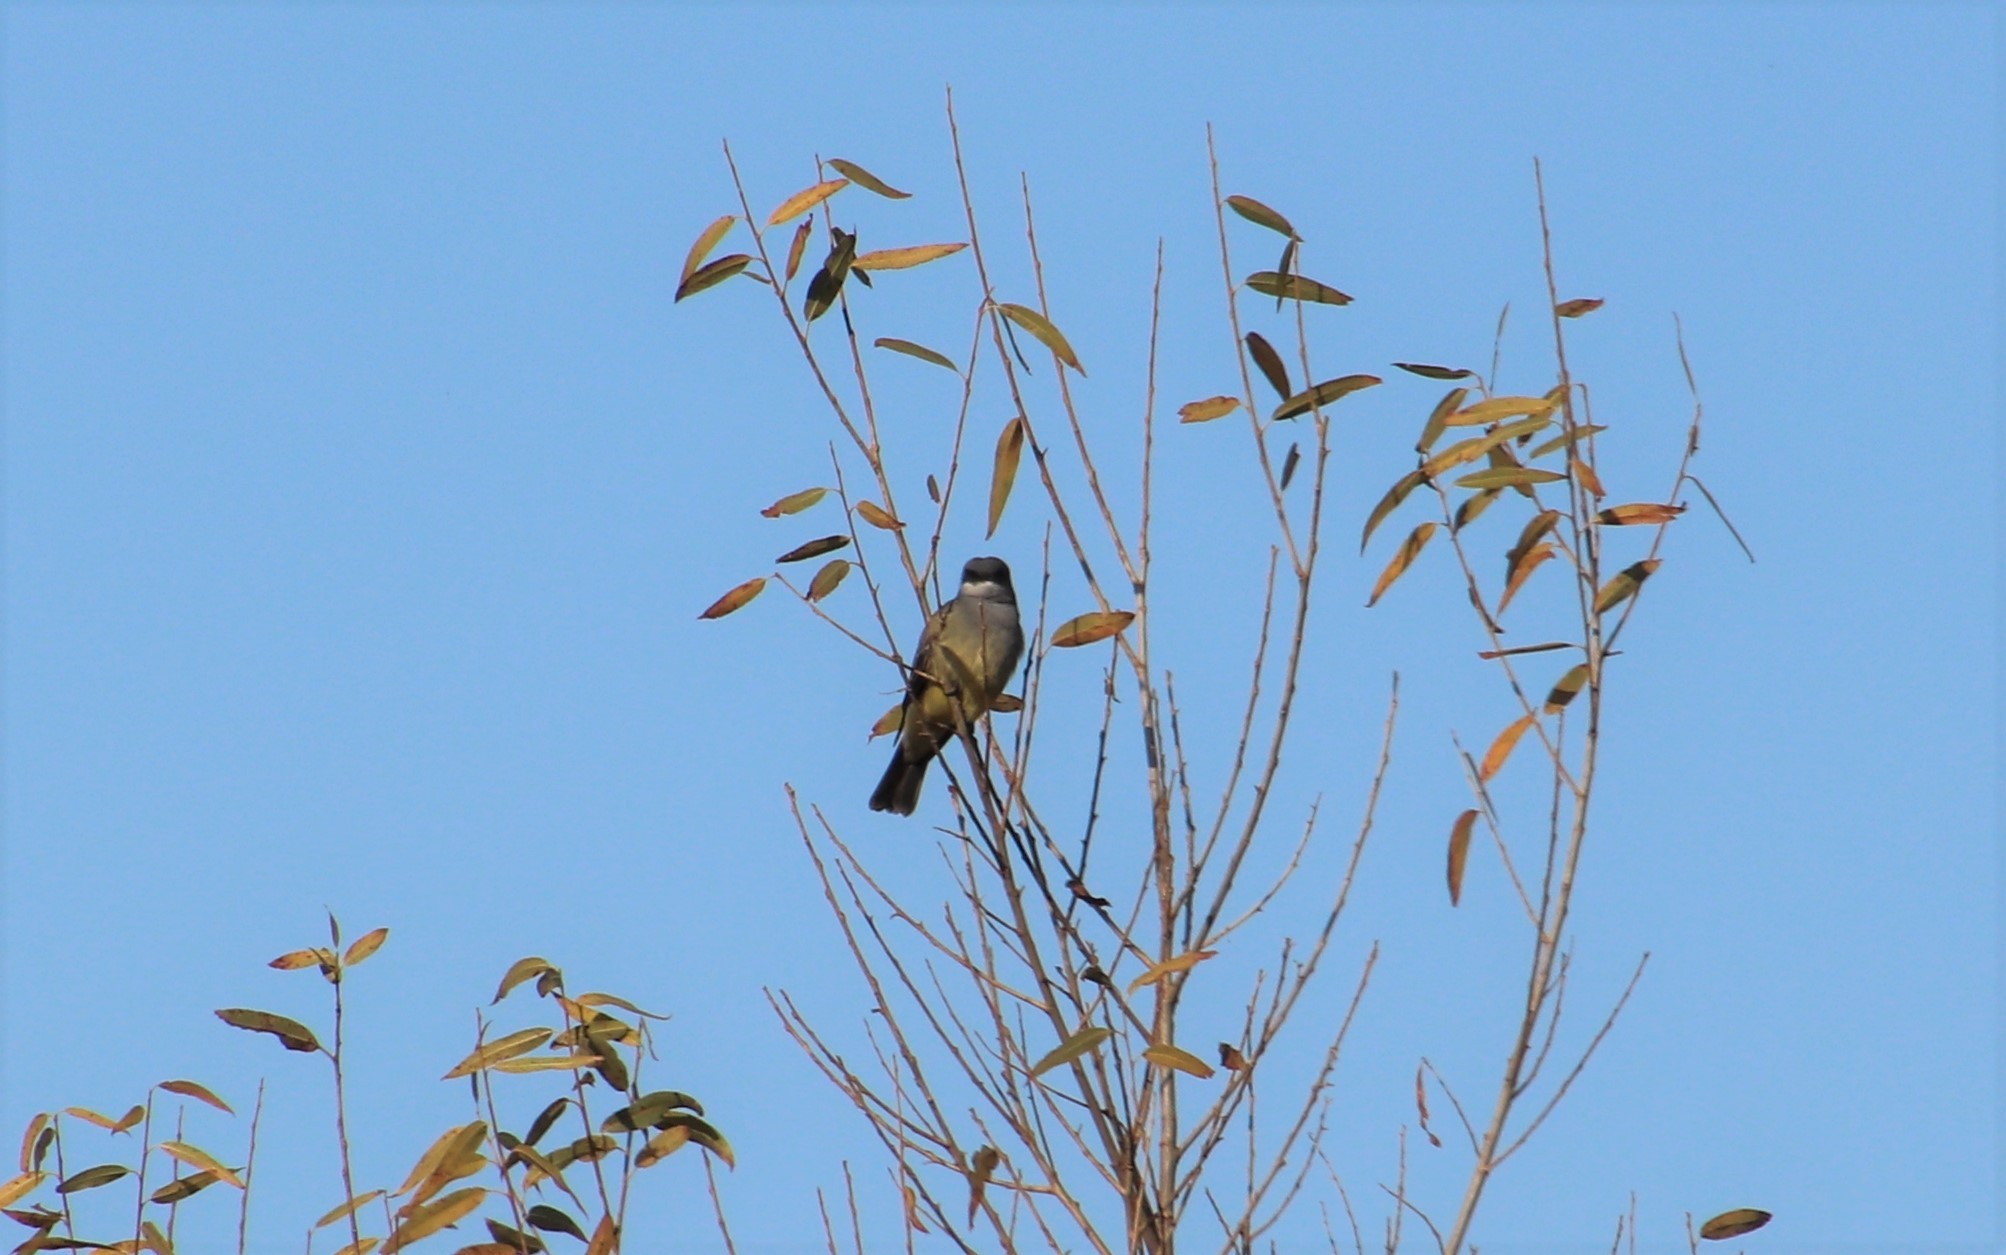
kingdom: Animalia
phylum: Chordata
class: Aves
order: Passeriformes
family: Tyrannidae
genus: Tyrannus
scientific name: Tyrannus vociferans
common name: Cassin's kingbird
